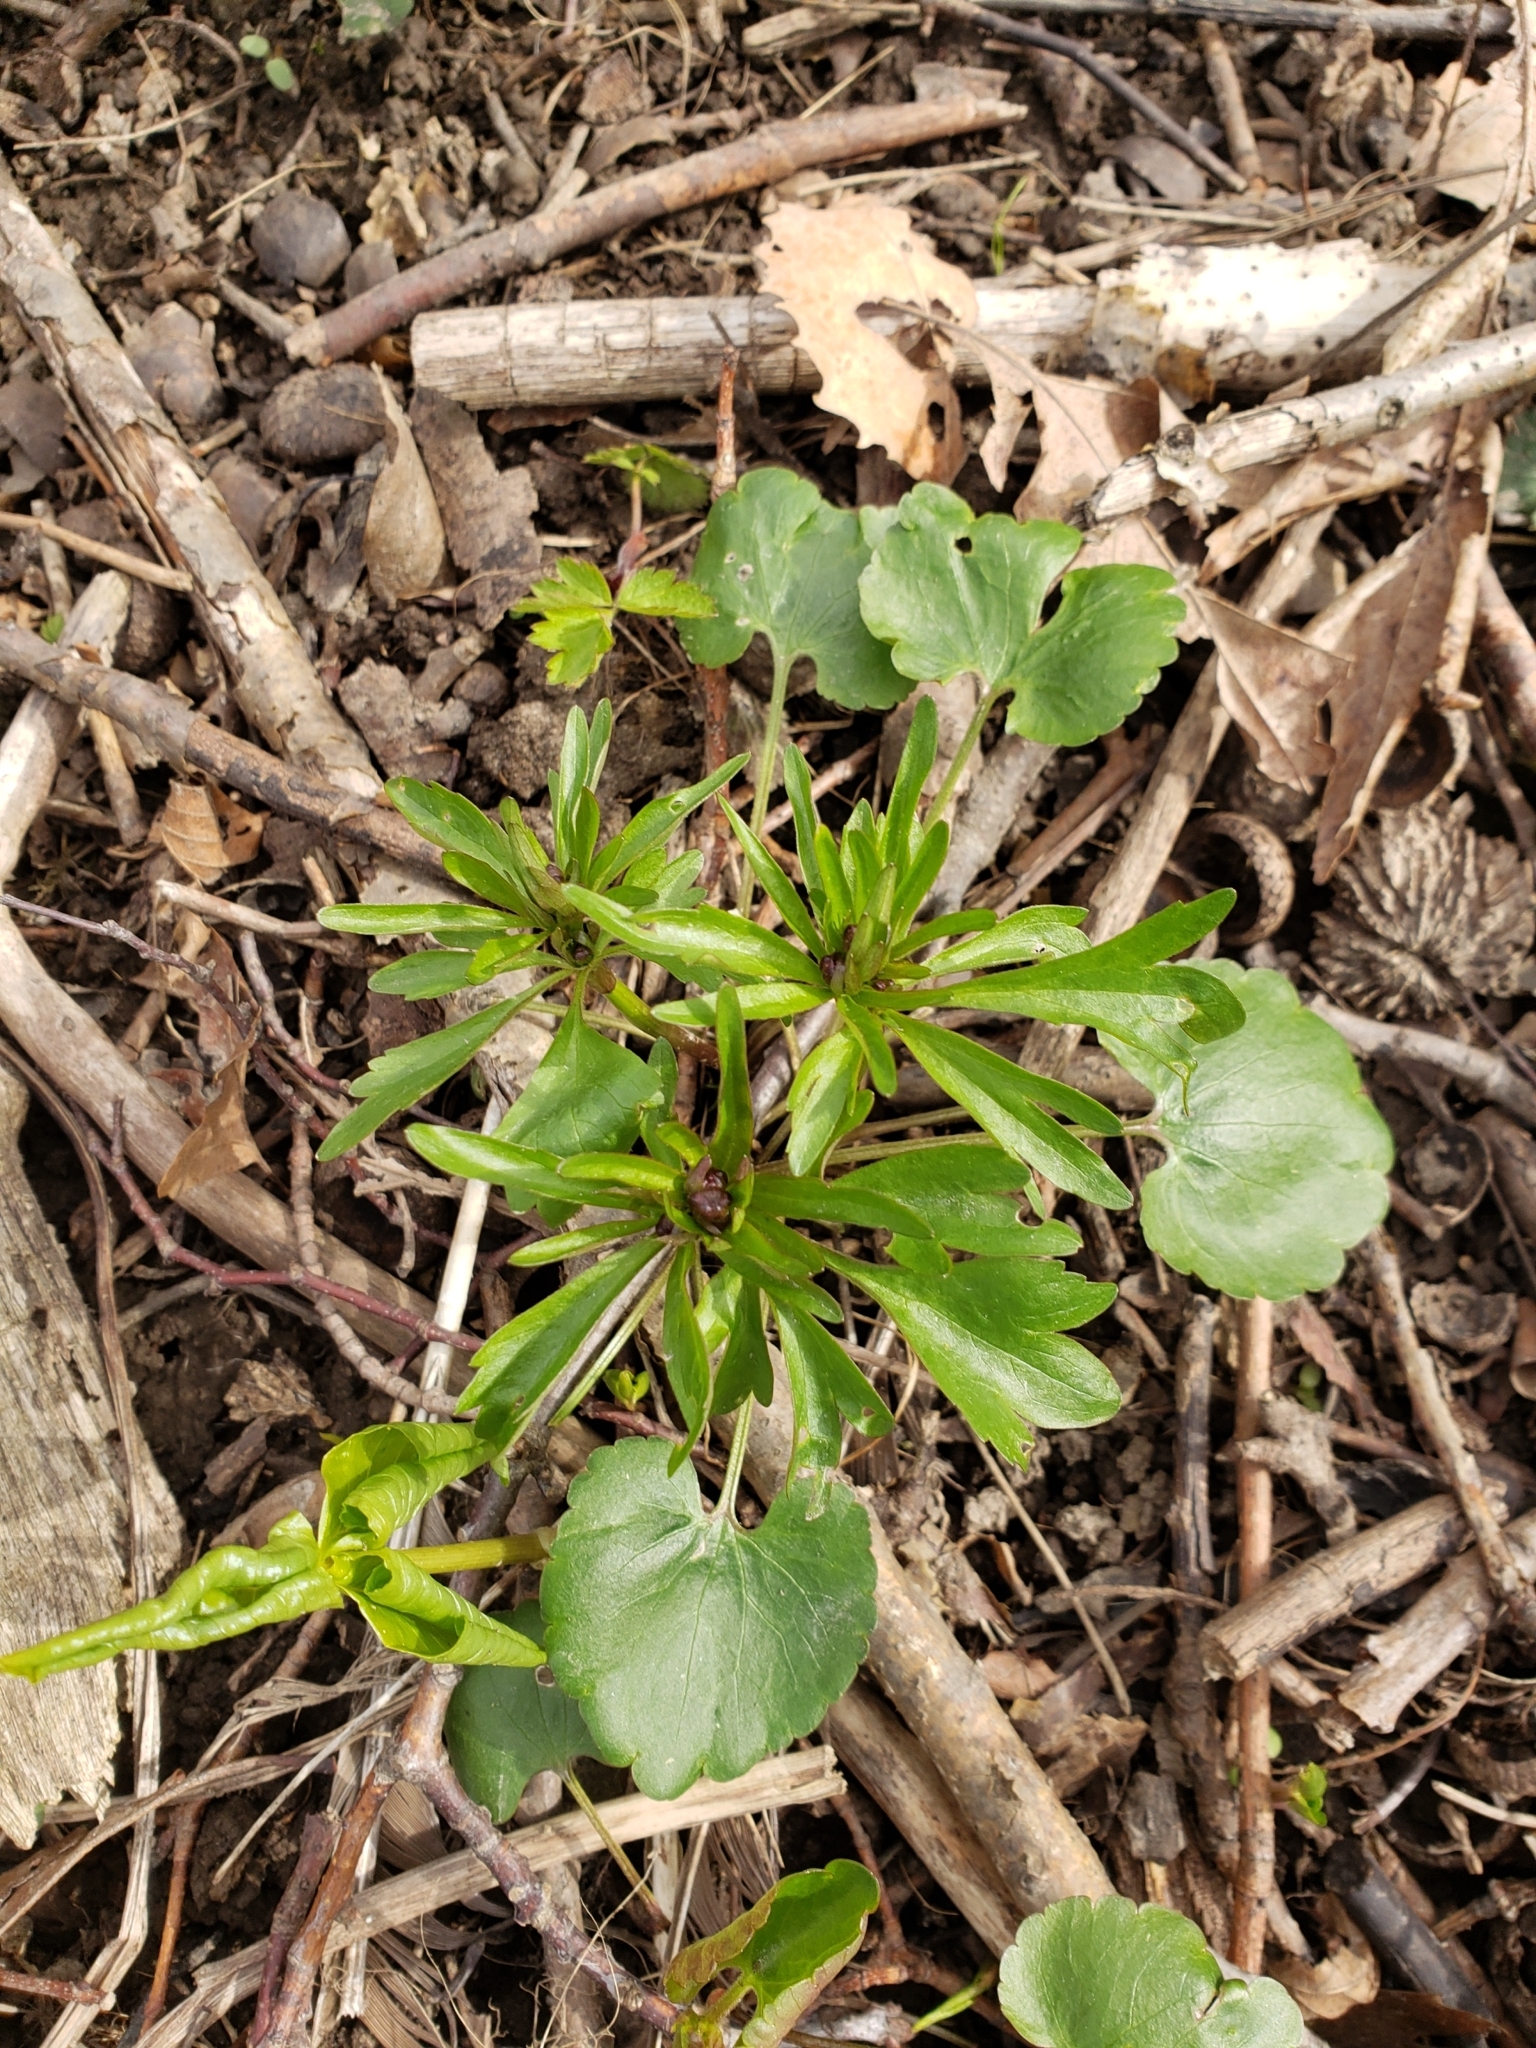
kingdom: Plantae
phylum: Tracheophyta
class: Magnoliopsida
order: Ranunculales
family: Ranunculaceae
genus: Ranunculus
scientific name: Ranunculus abortivus
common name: Early wood buttercup
